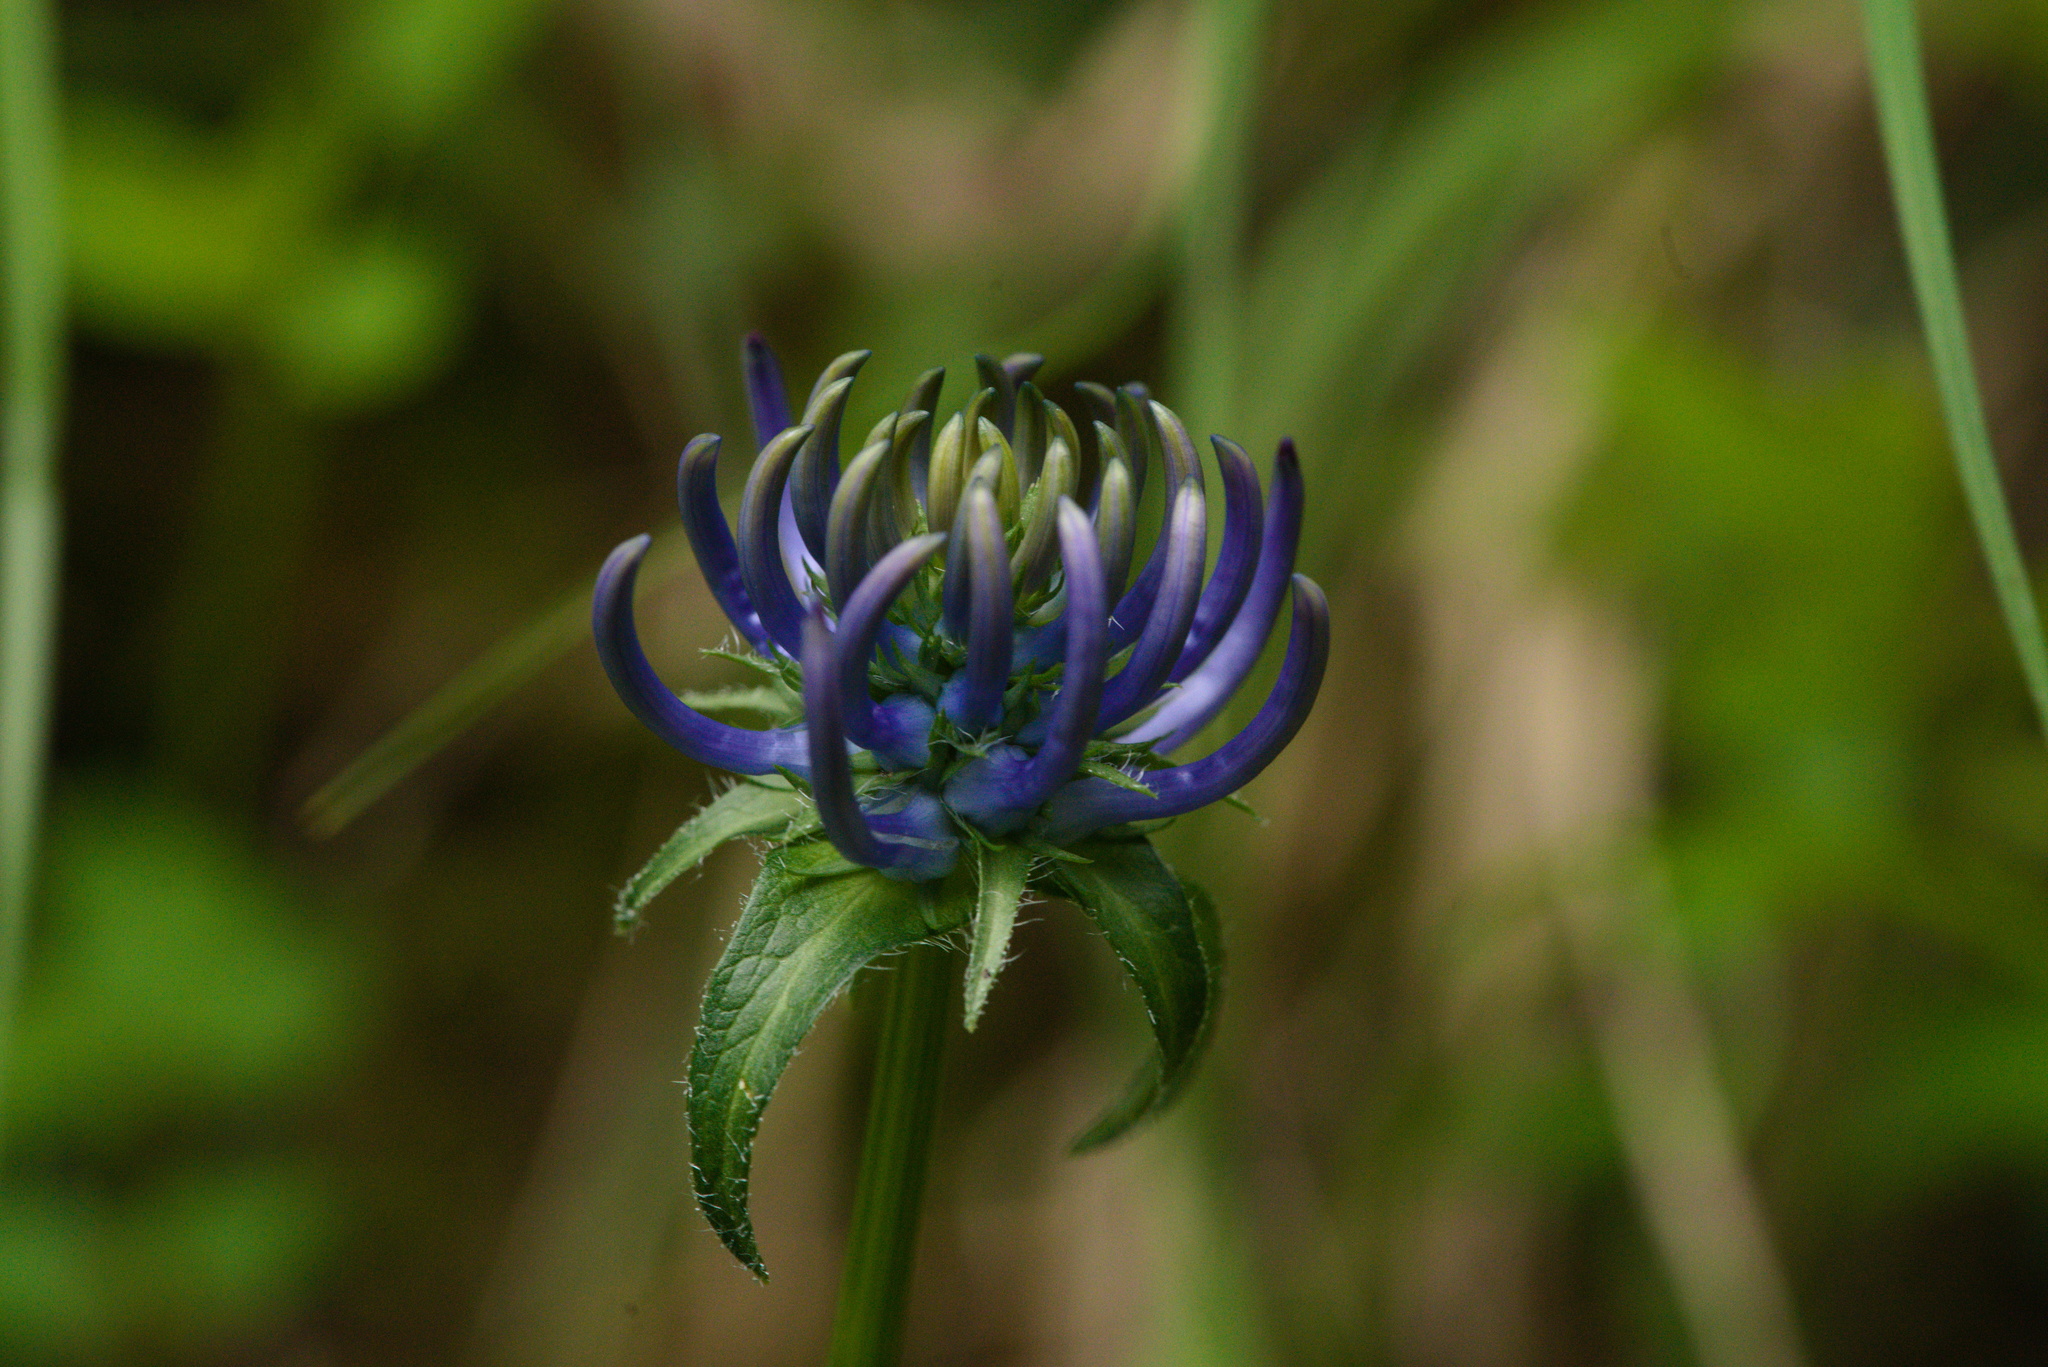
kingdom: Plantae
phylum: Tracheophyta
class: Magnoliopsida
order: Asterales
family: Campanulaceae
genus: Phyteuma
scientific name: Phyteuma orbiculare
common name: Round-headed rampion
